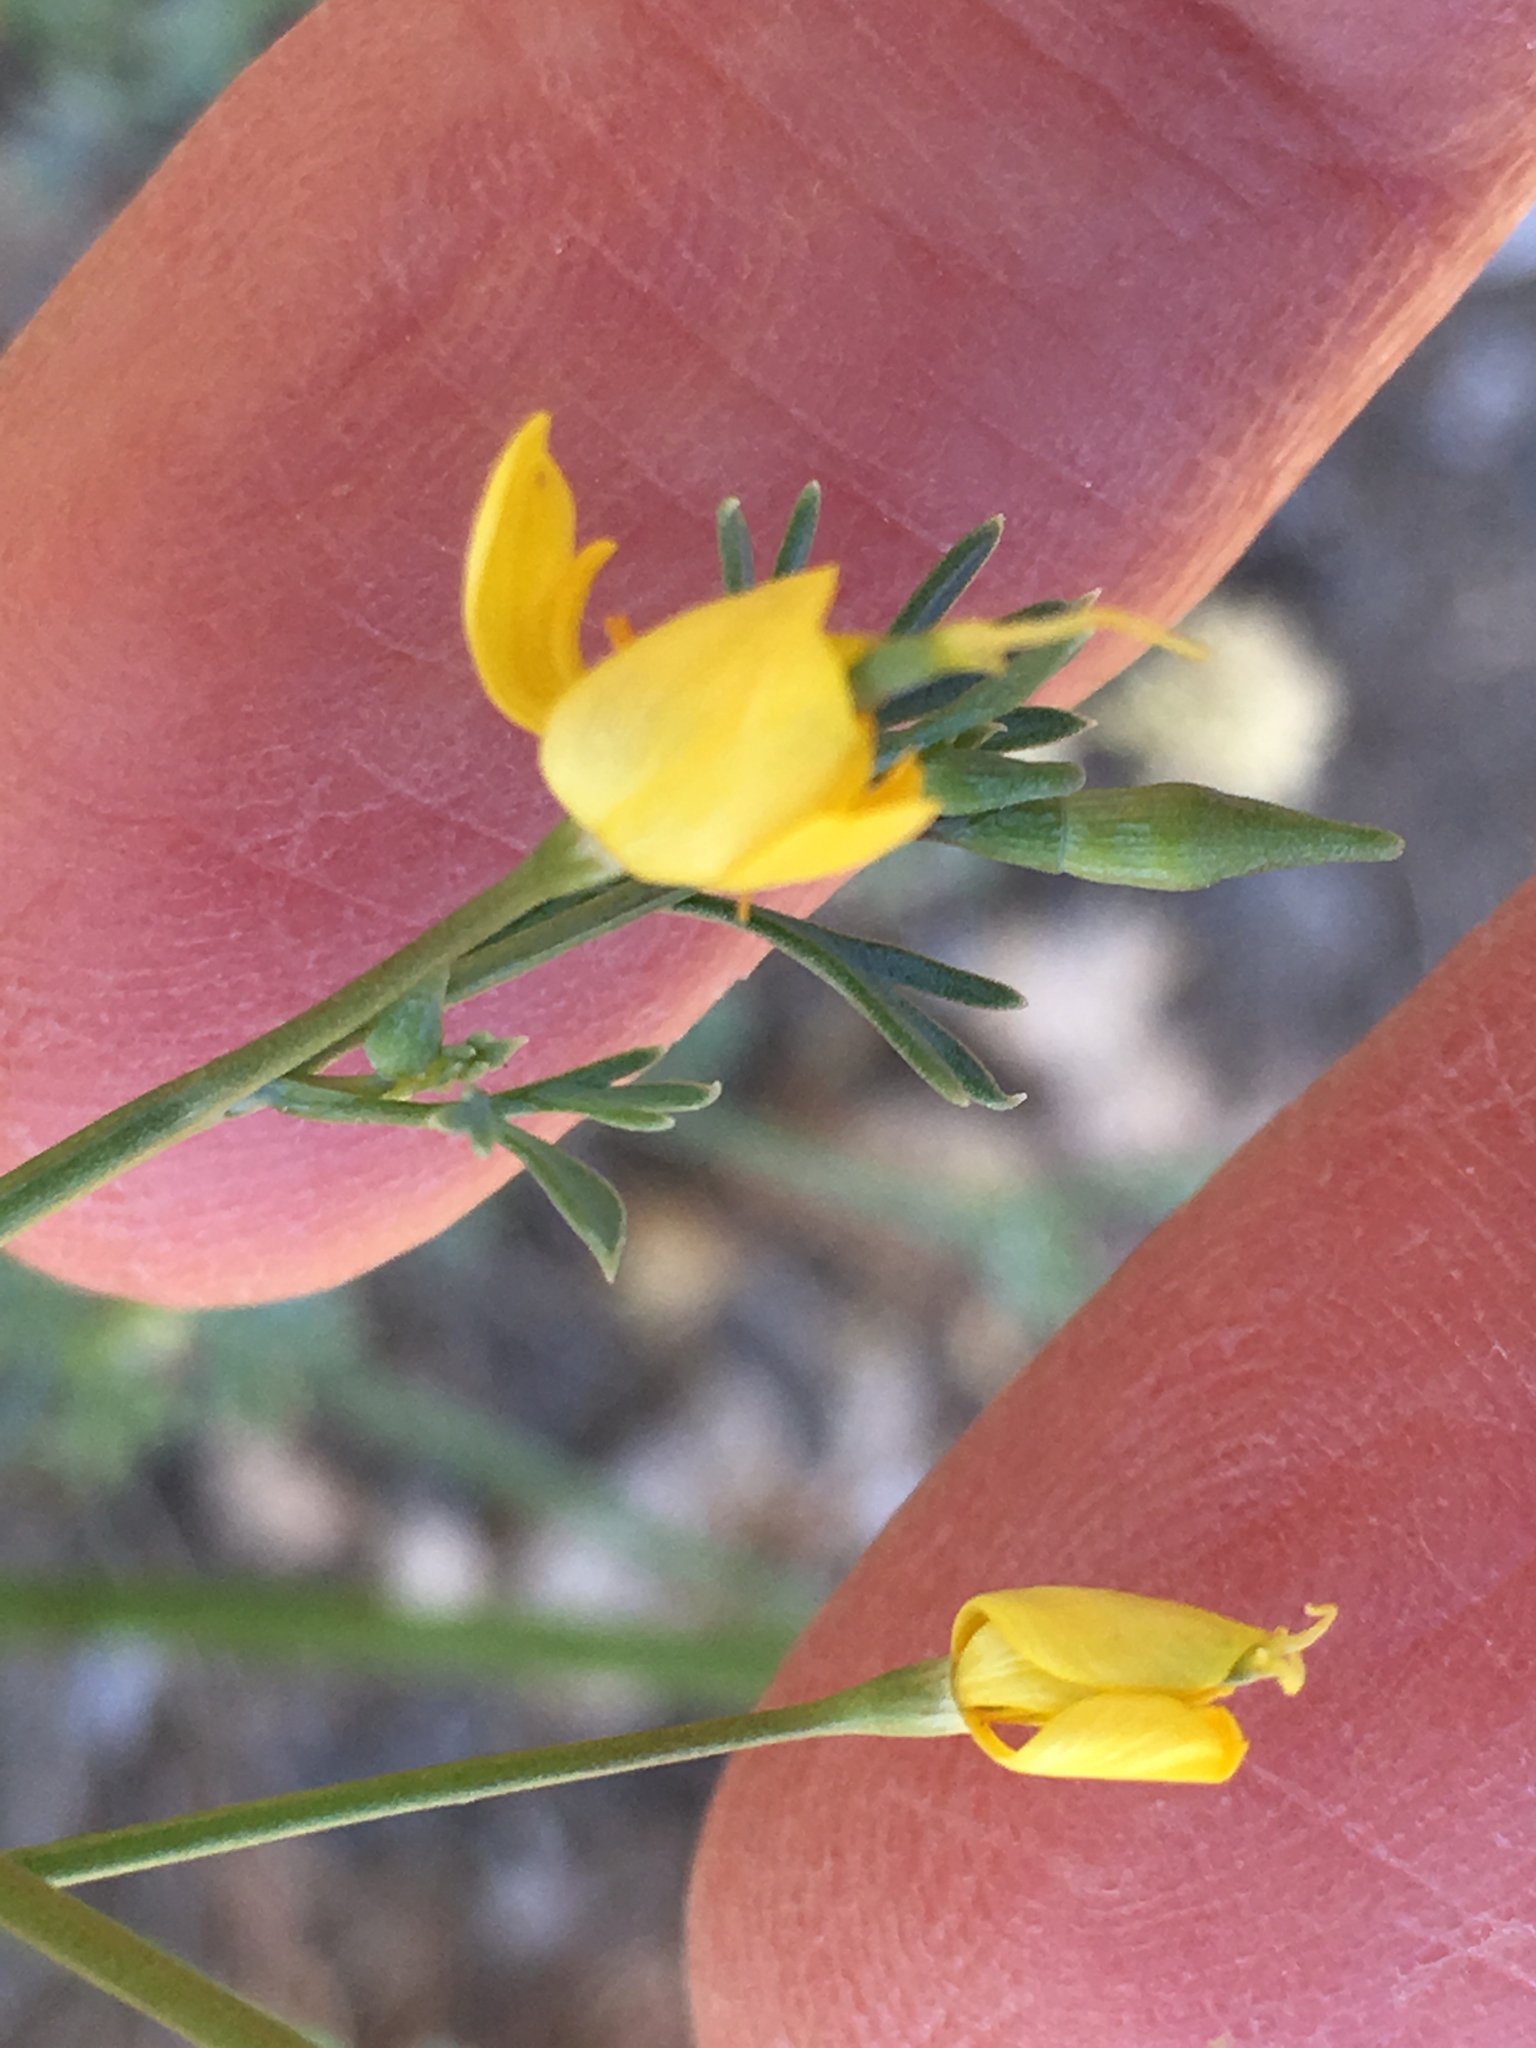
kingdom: Plantae
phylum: Tracheophyta
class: Magnoliopsida
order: Ranunculales
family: Papaveraceae
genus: Eschscholzia
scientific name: Eschscholzia minutiflora
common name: Small-flower california-poppy
